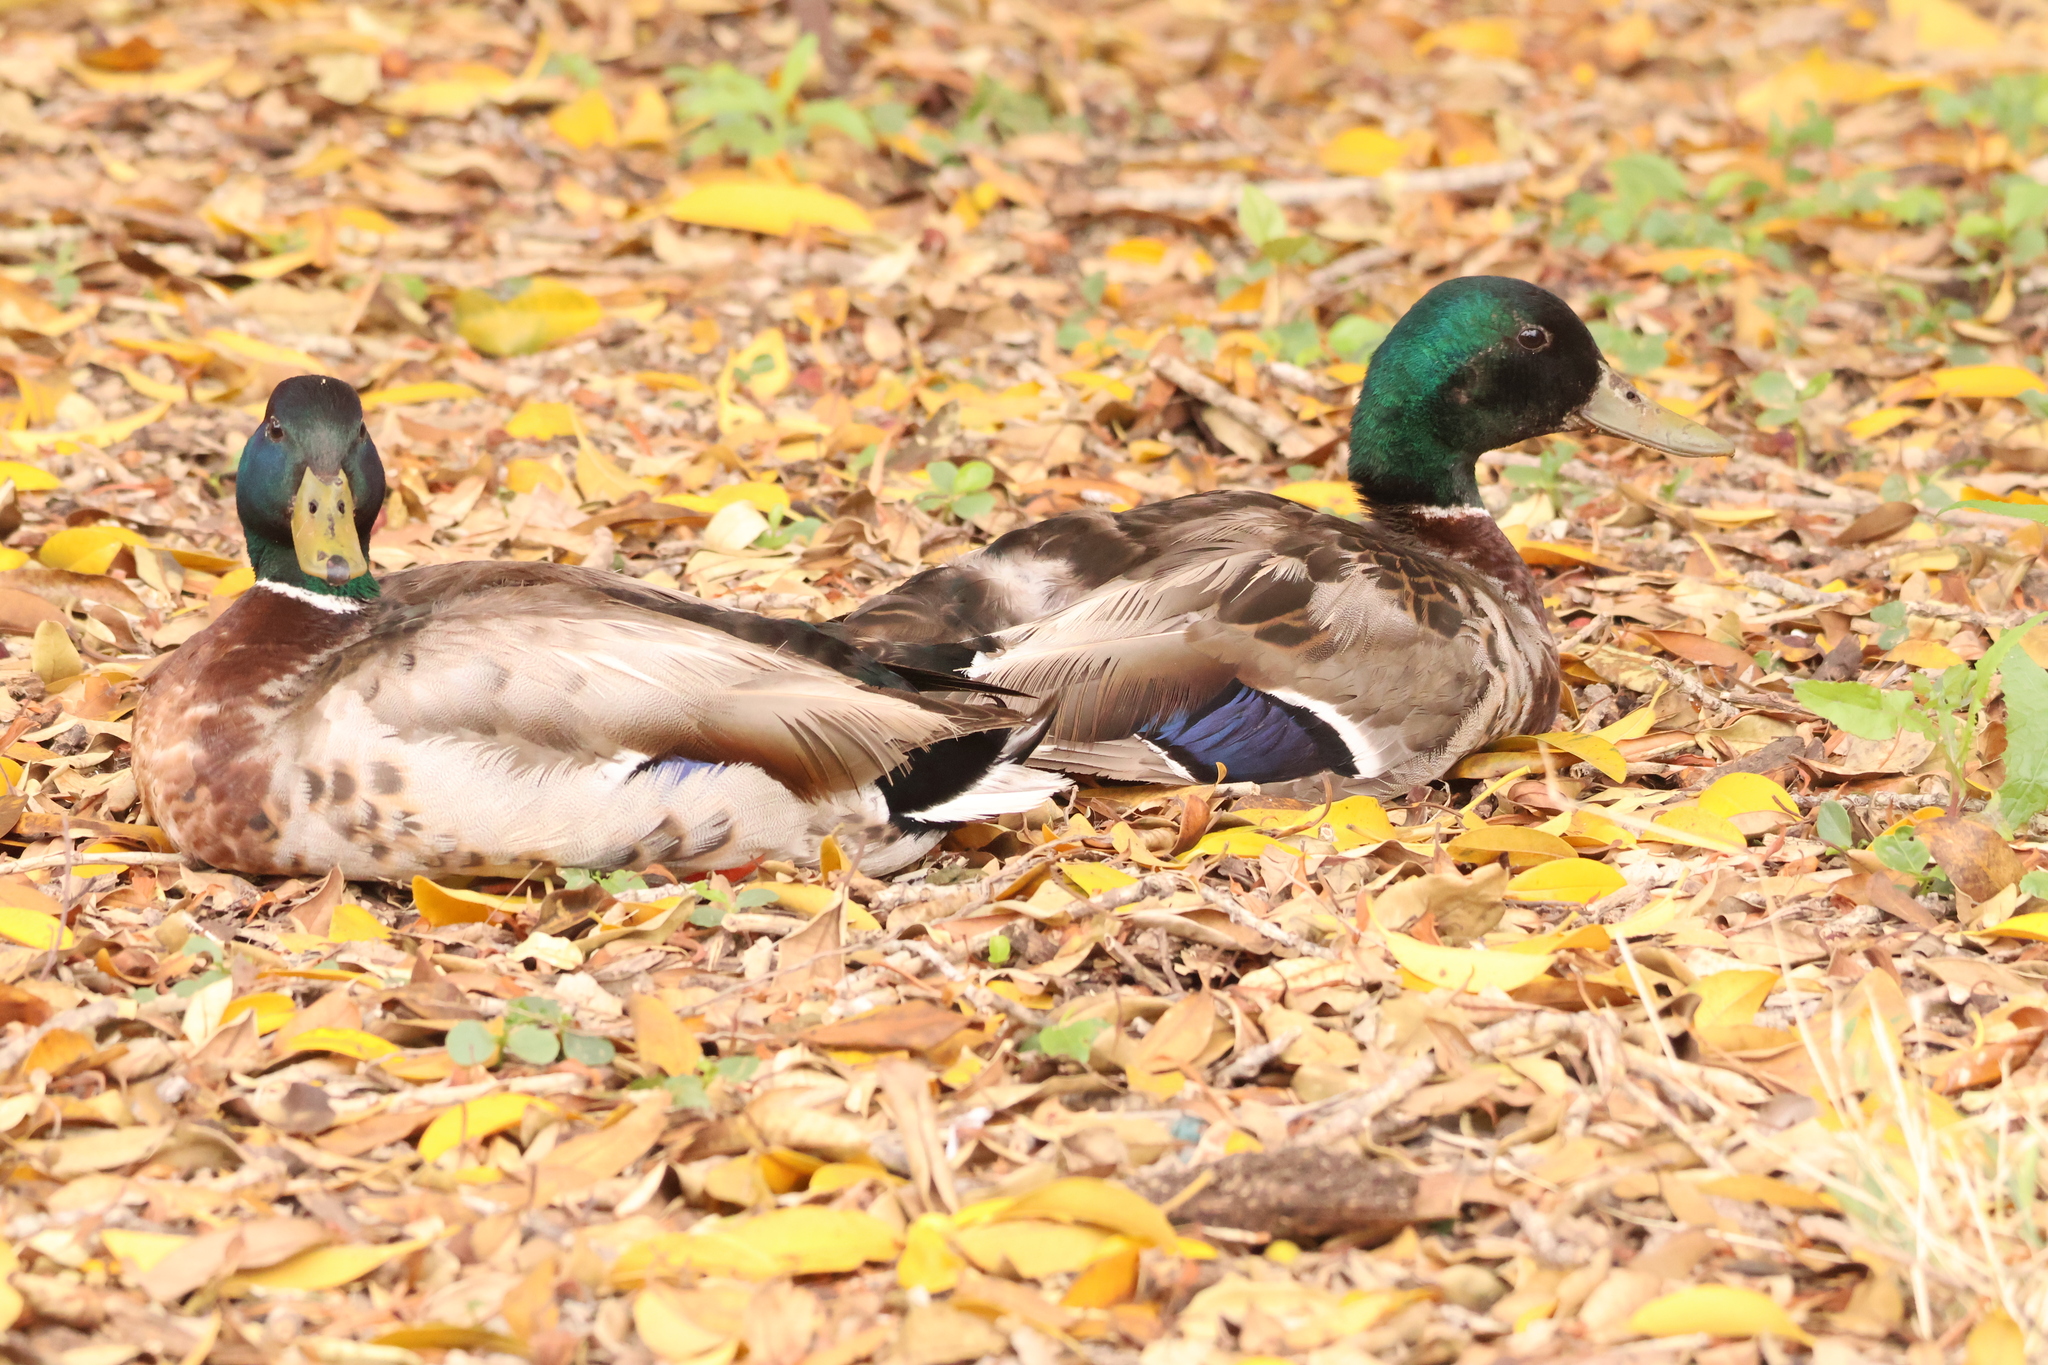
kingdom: Animalia
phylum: Chordata
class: Aves
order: Anseriformes
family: Anatidae
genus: Anas
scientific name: Anas platyrhynchos
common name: Mallard
